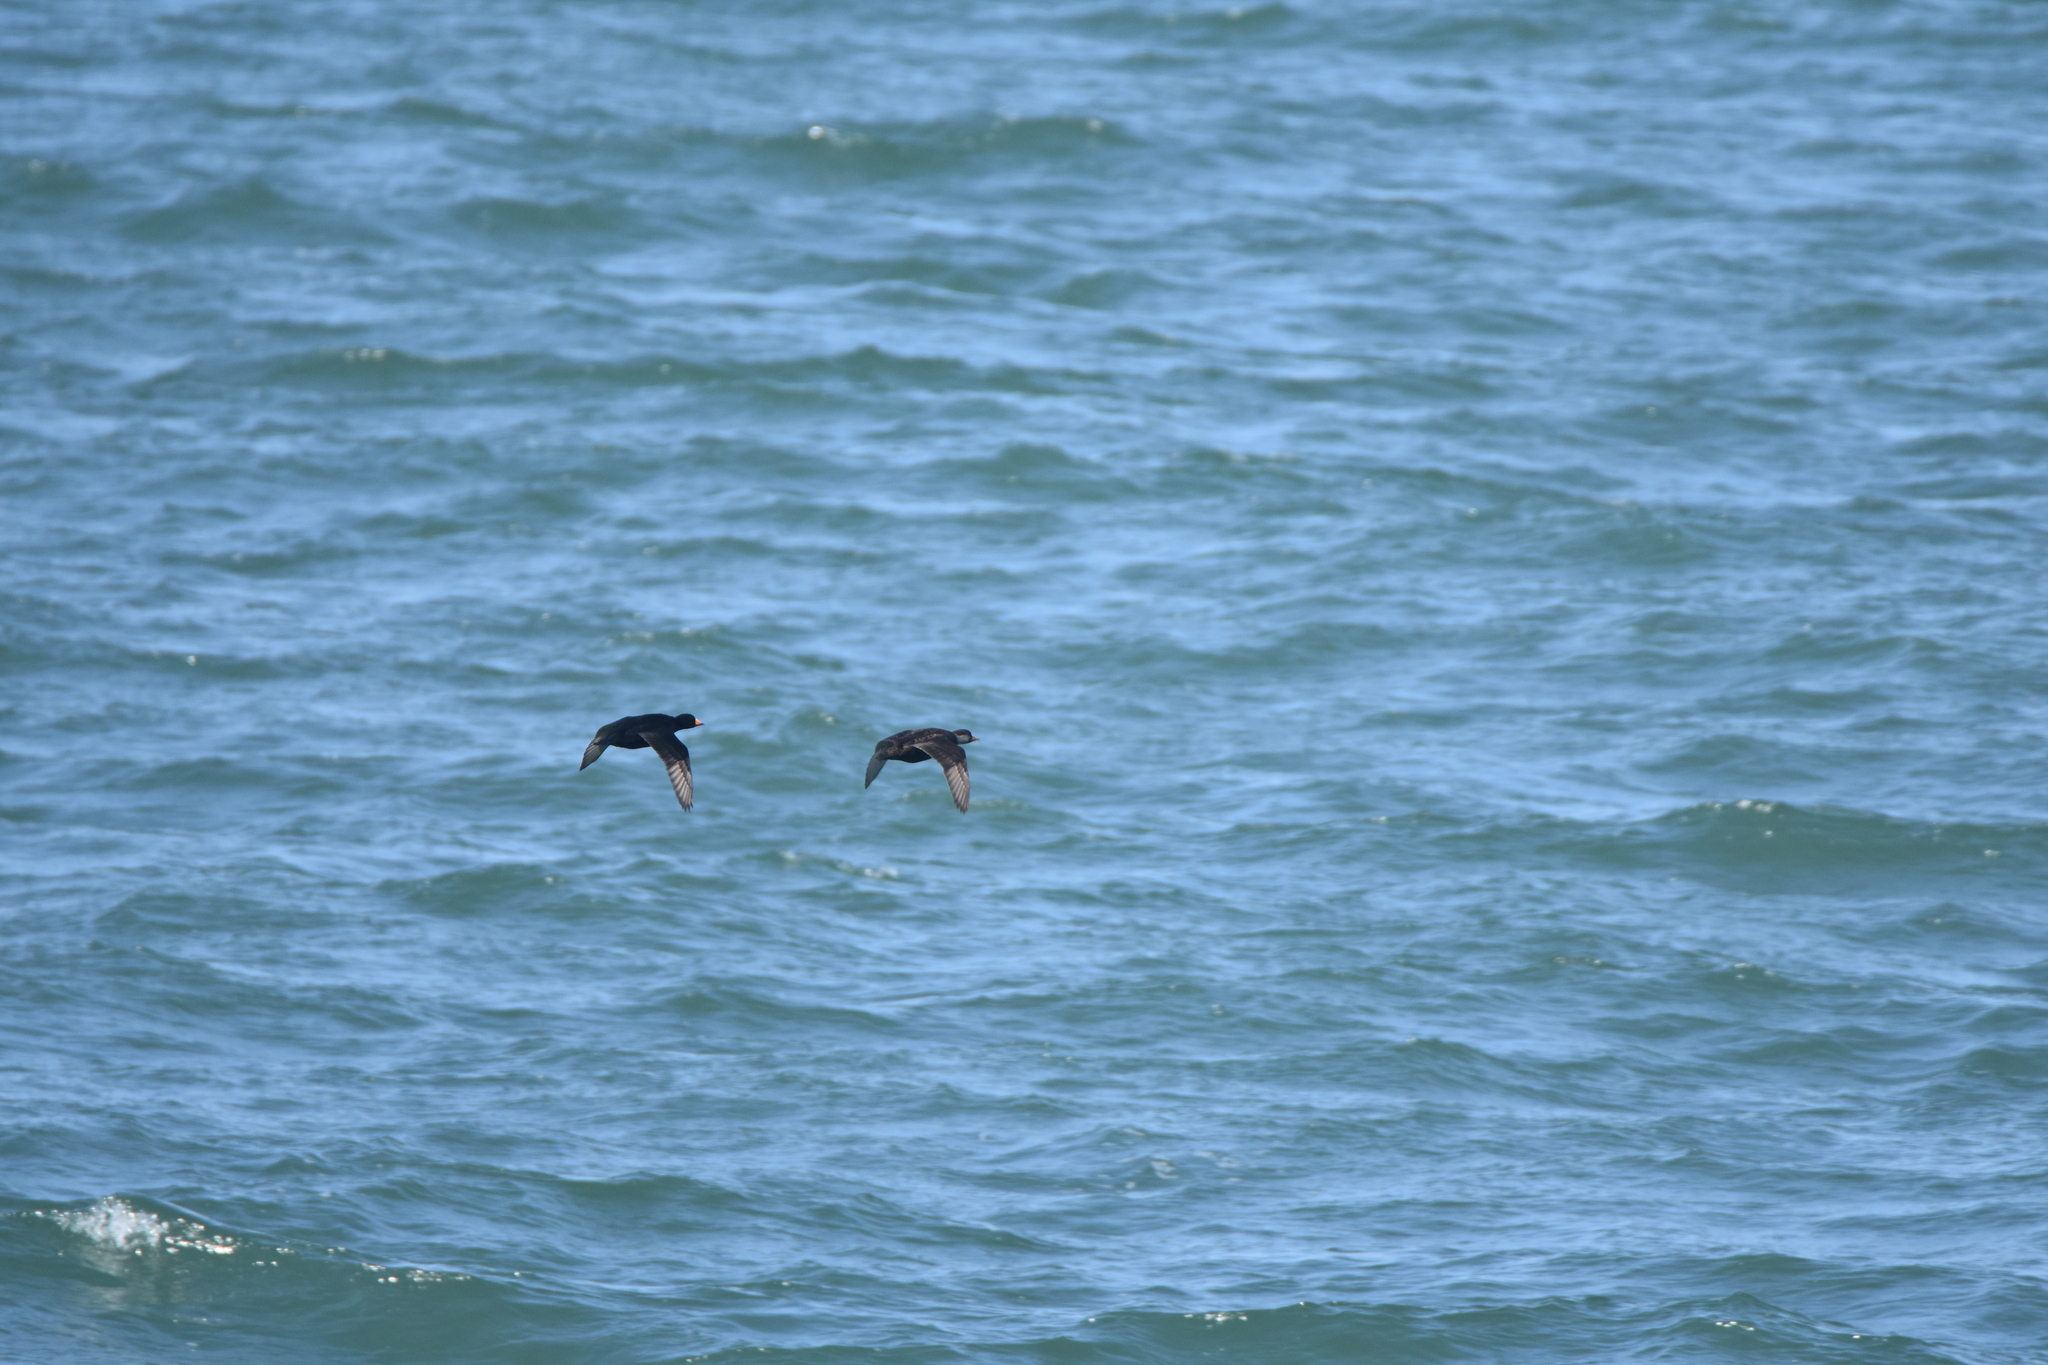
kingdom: Animalia
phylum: Chordata
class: Aves
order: Anseriformes
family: Anatidae
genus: Melanitta
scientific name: Melanitta americana
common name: Black scoter
